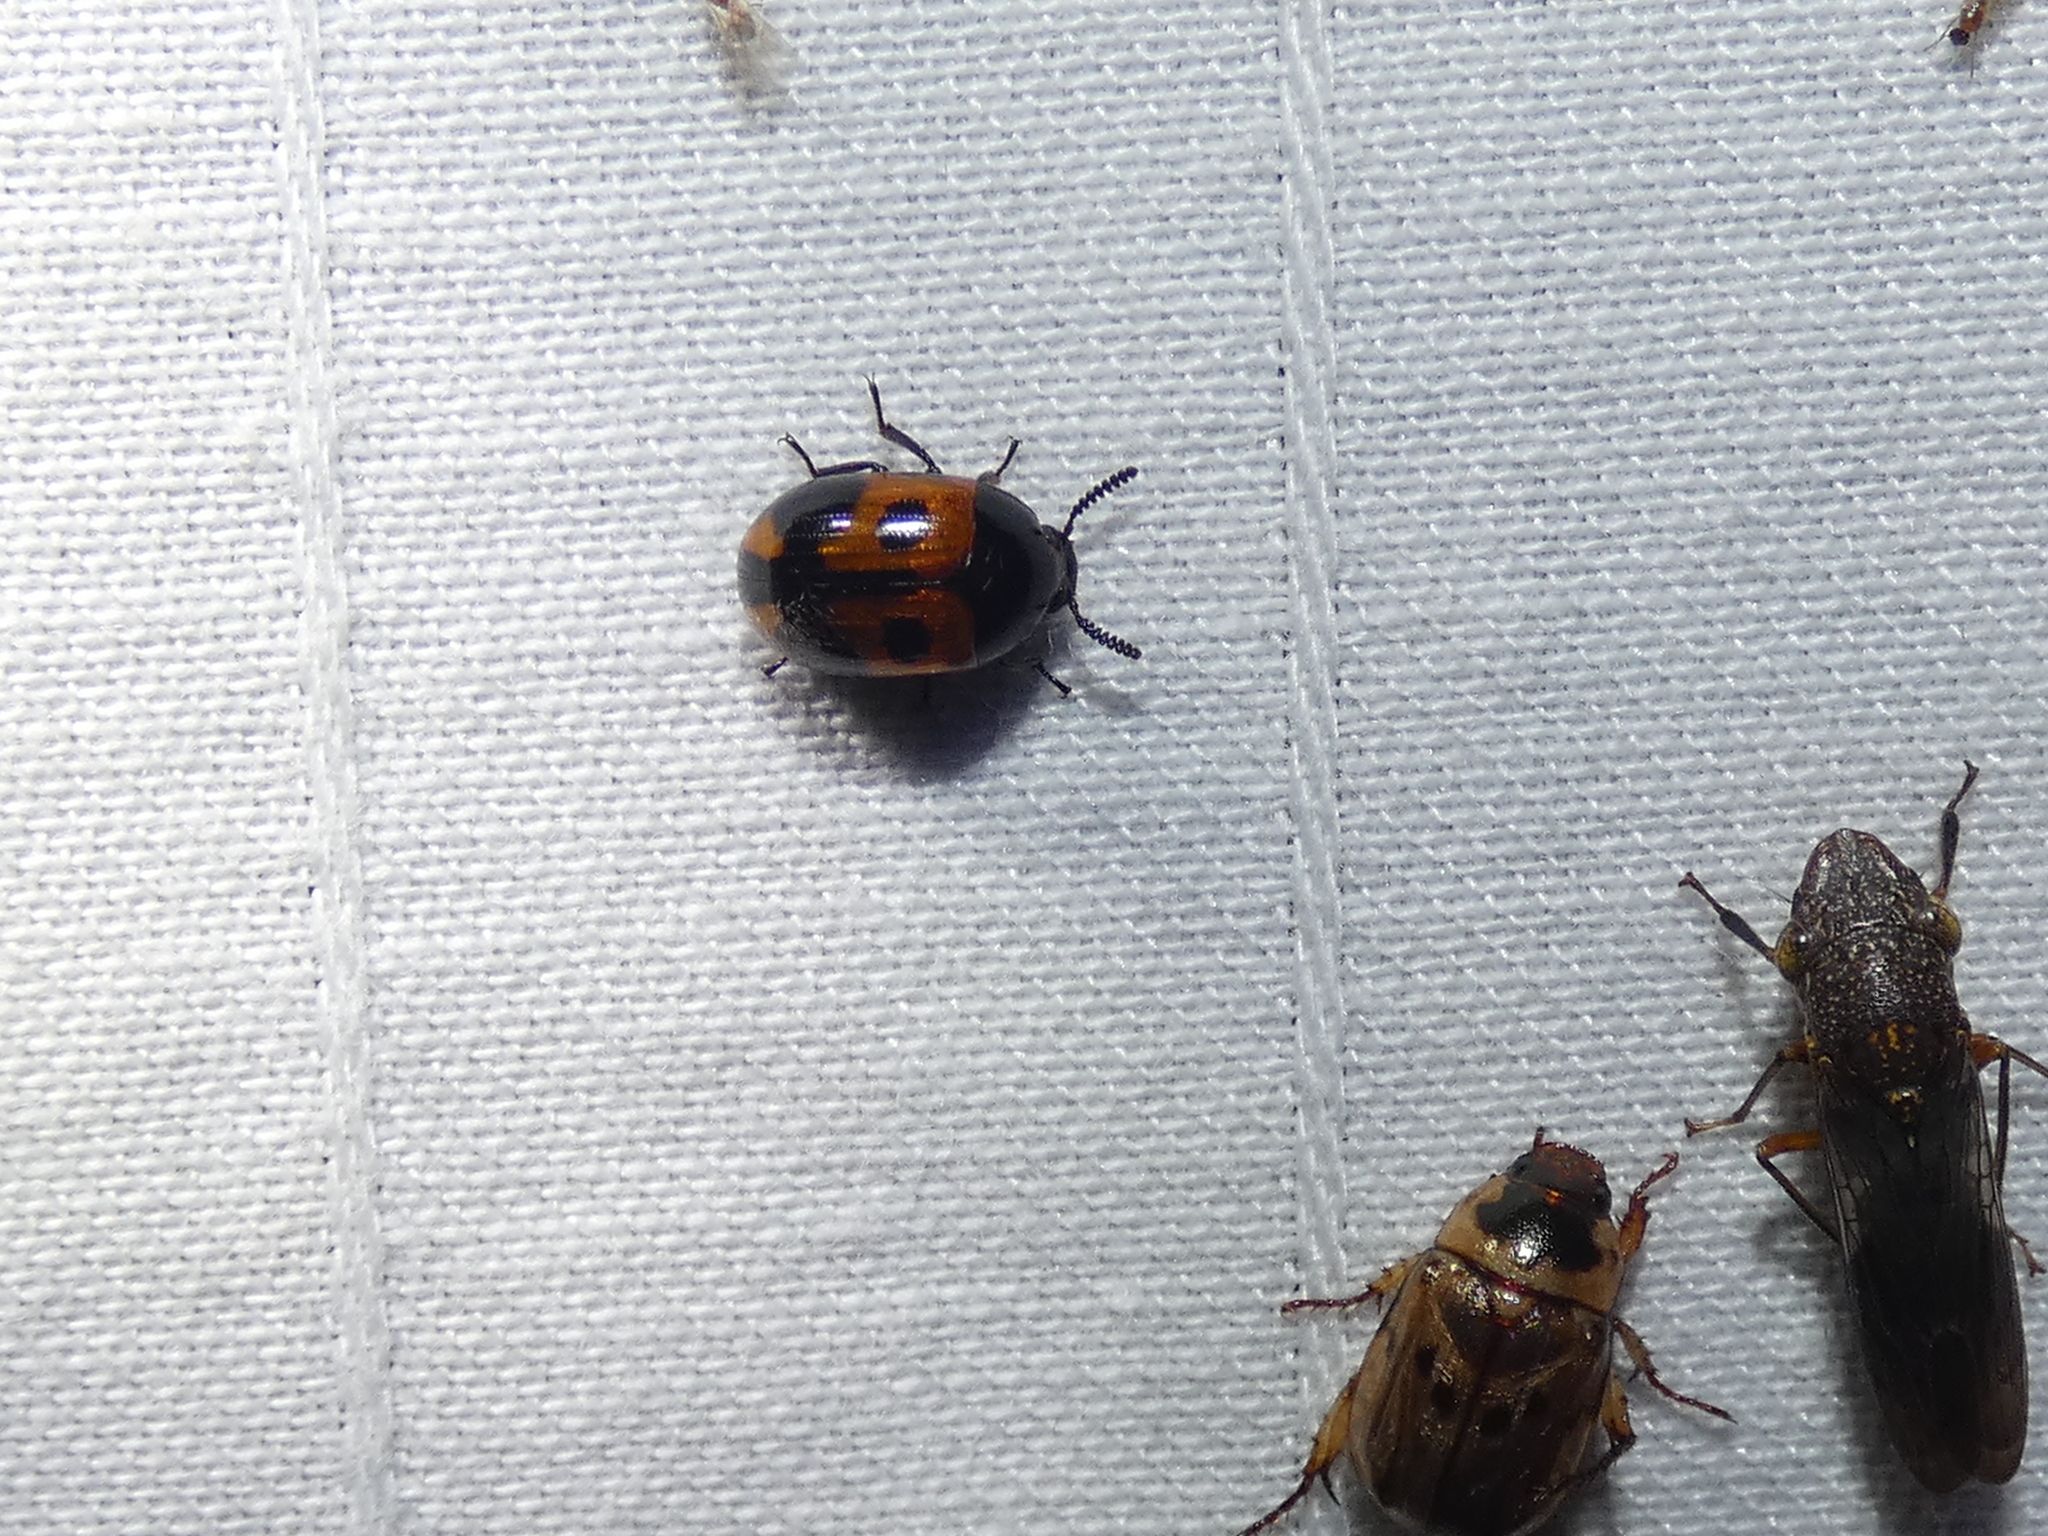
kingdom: Animalia
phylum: Arthropoda
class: Insecta
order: Coleoptera
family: Tenebrionidae
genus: Diaperis
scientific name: Diaperis maculata
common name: Darkling beetle
